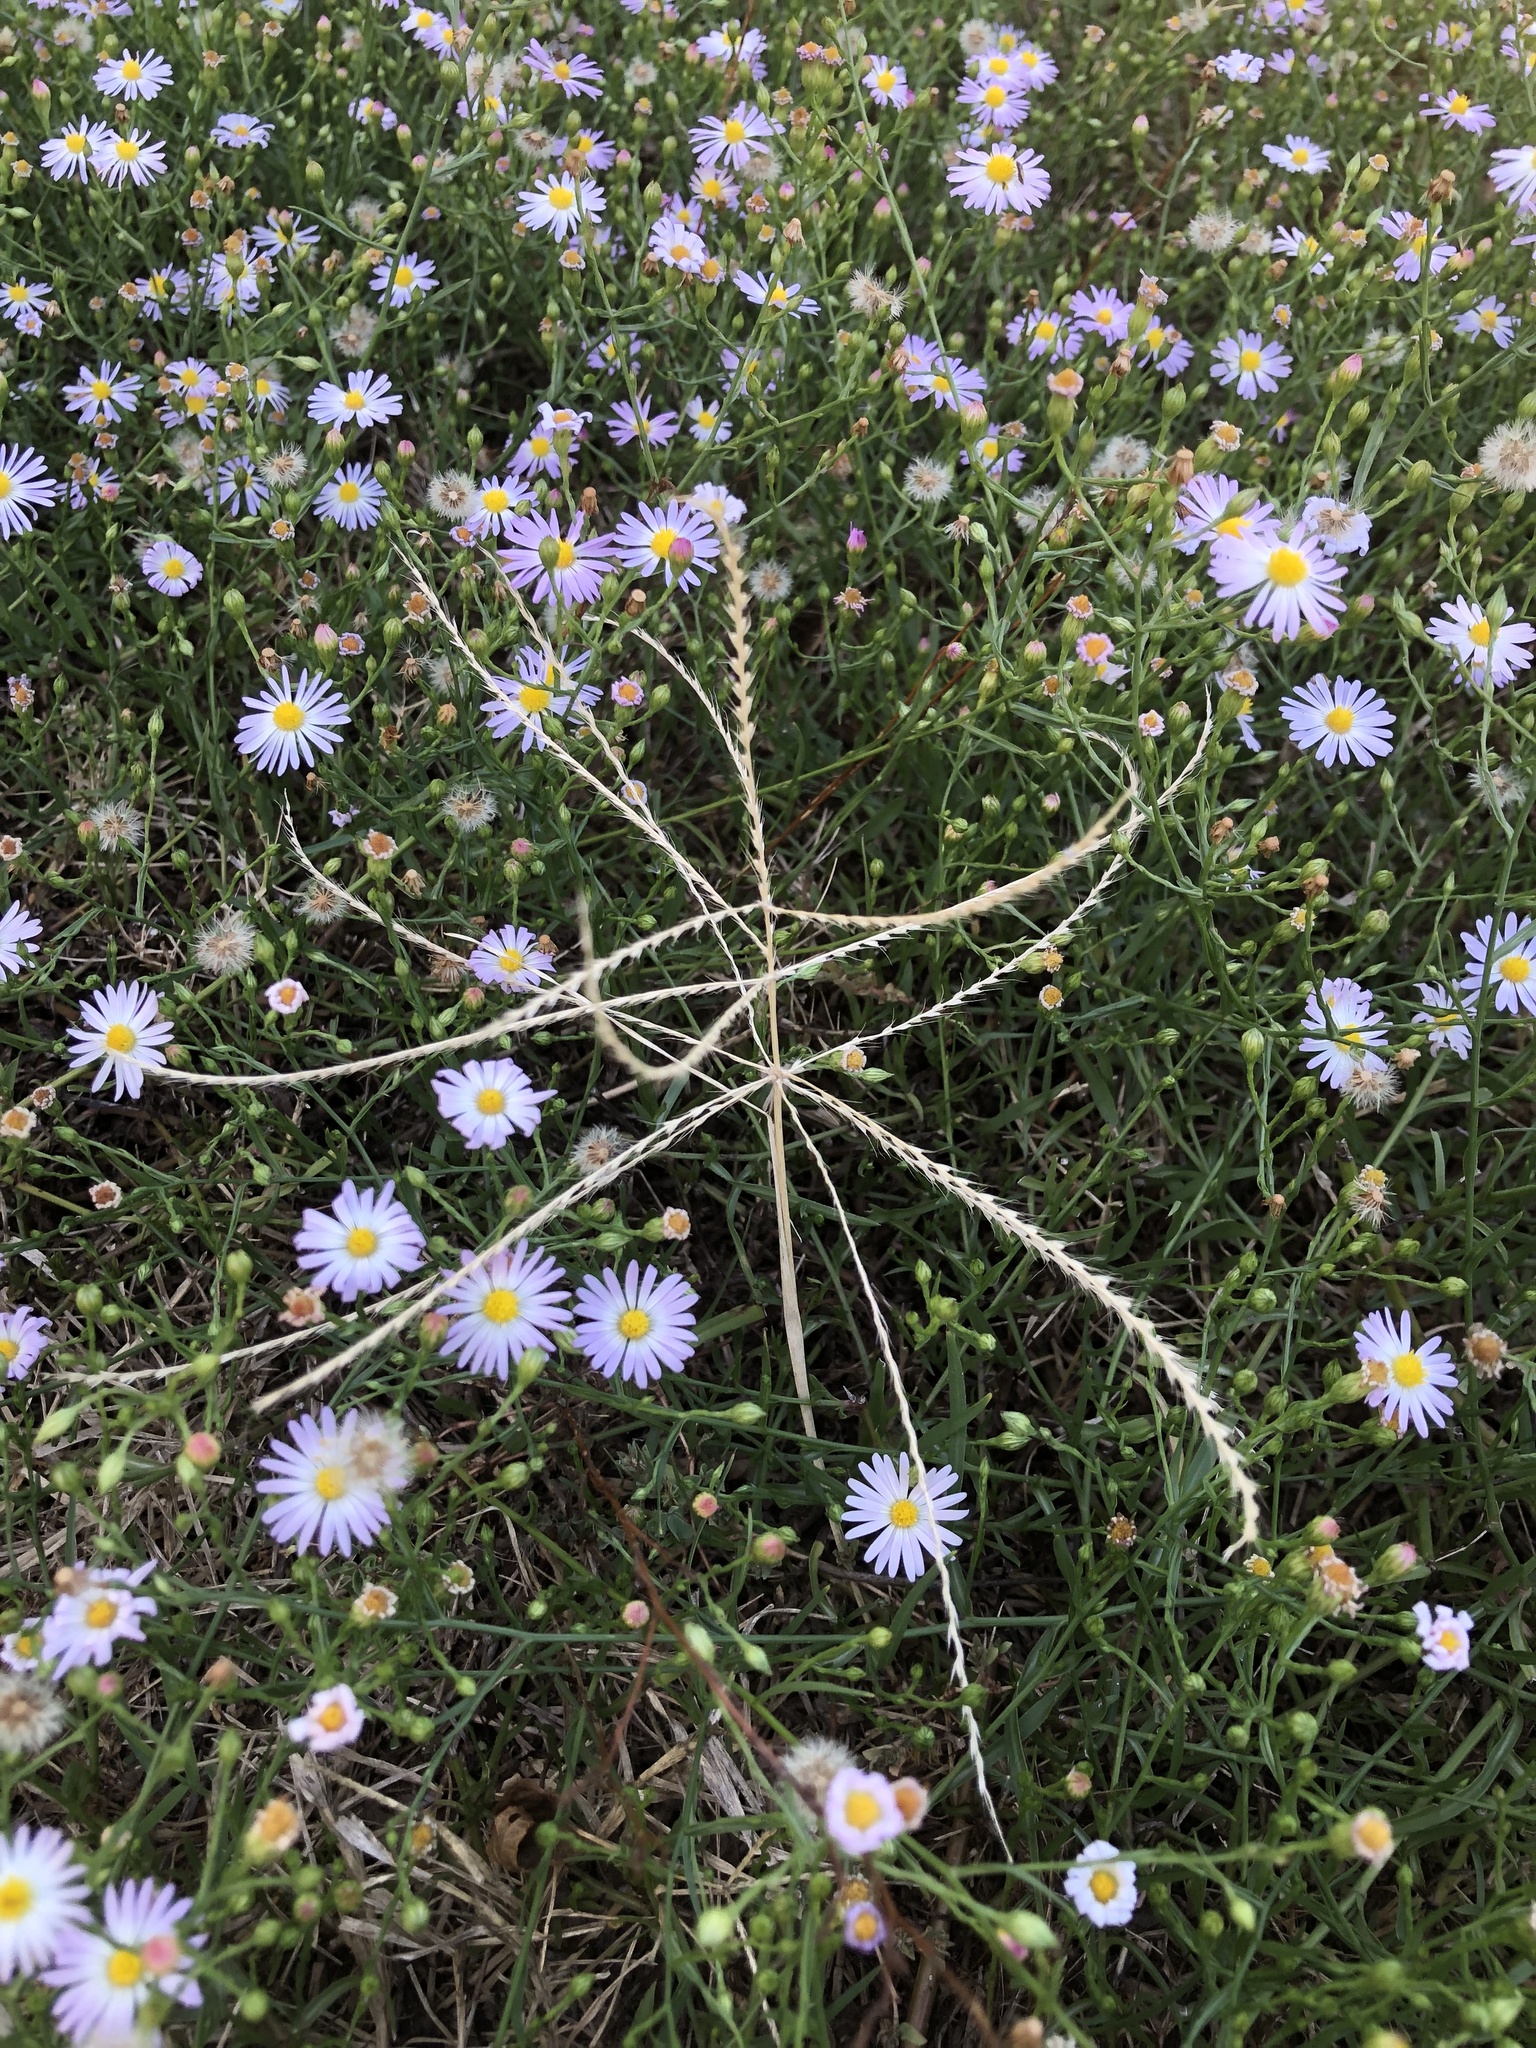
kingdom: Plantae
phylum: Tracheophyta
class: Liliopsida
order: Poales
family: Poaceae
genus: Chloris
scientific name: Chloris verticillata
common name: Tumble windmill grass
